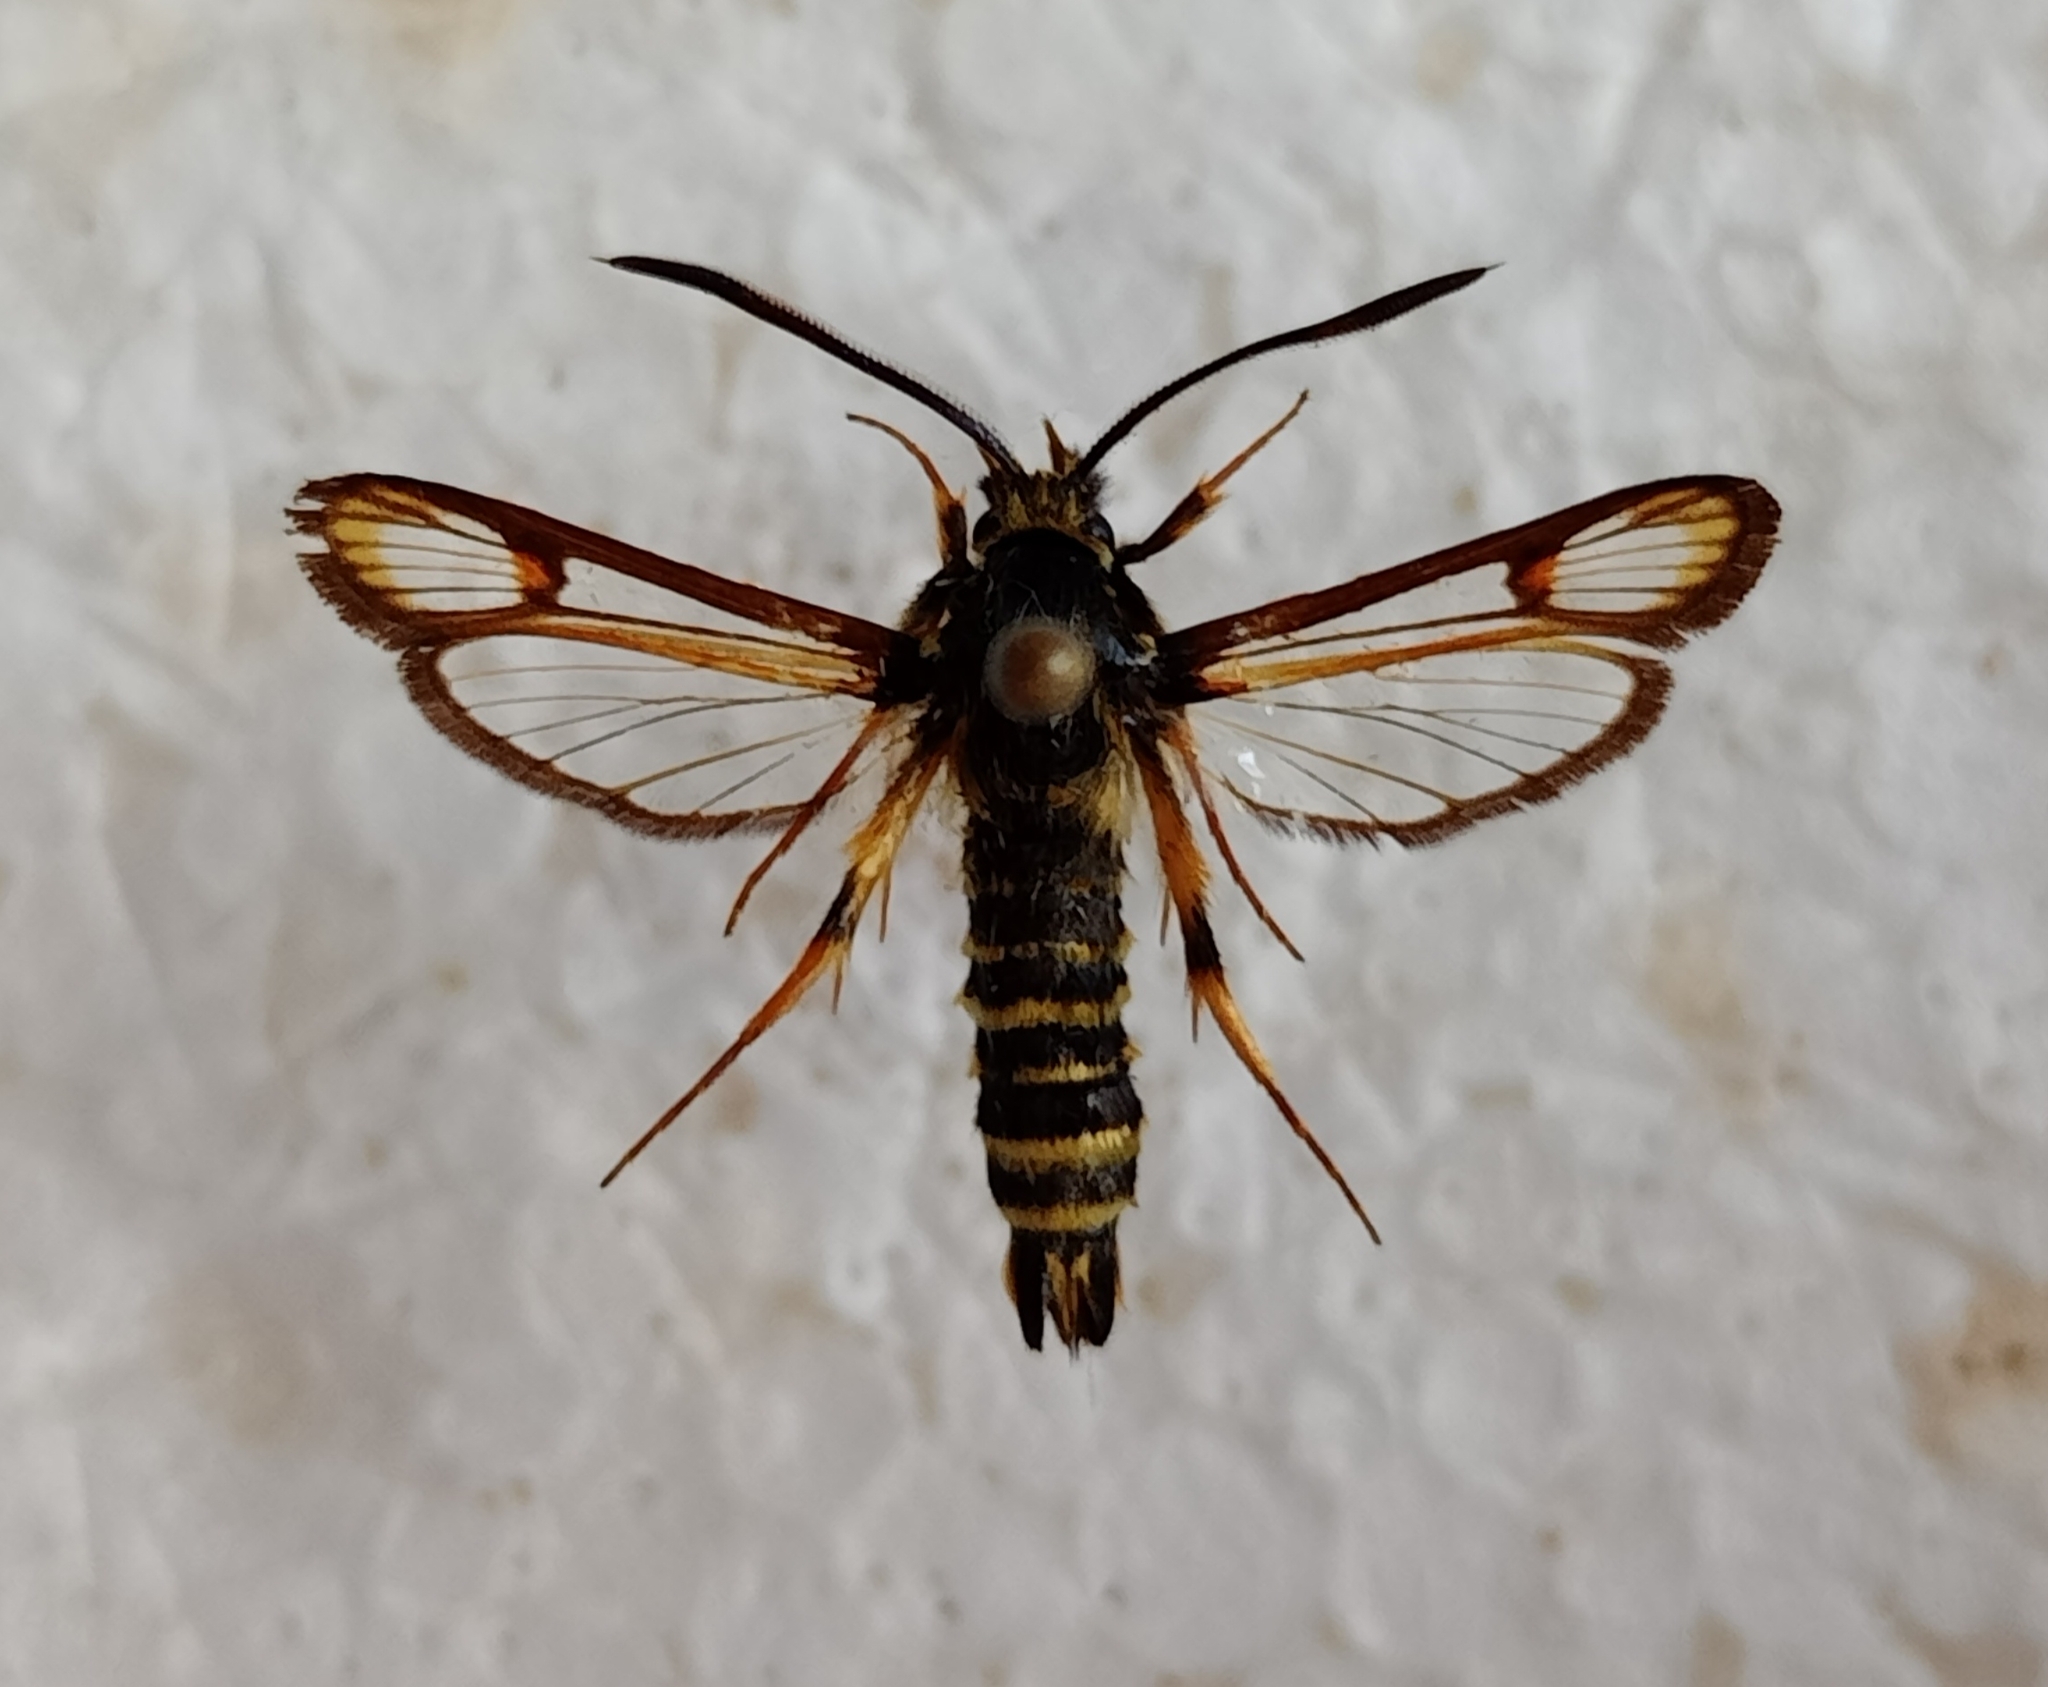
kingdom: Animalia
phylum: Arthropoda
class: Insecta
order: Lepidoptera
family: Sesiidae
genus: Bembecia
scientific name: Bembecia ichneumoniformis
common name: Six-belted clearwing
